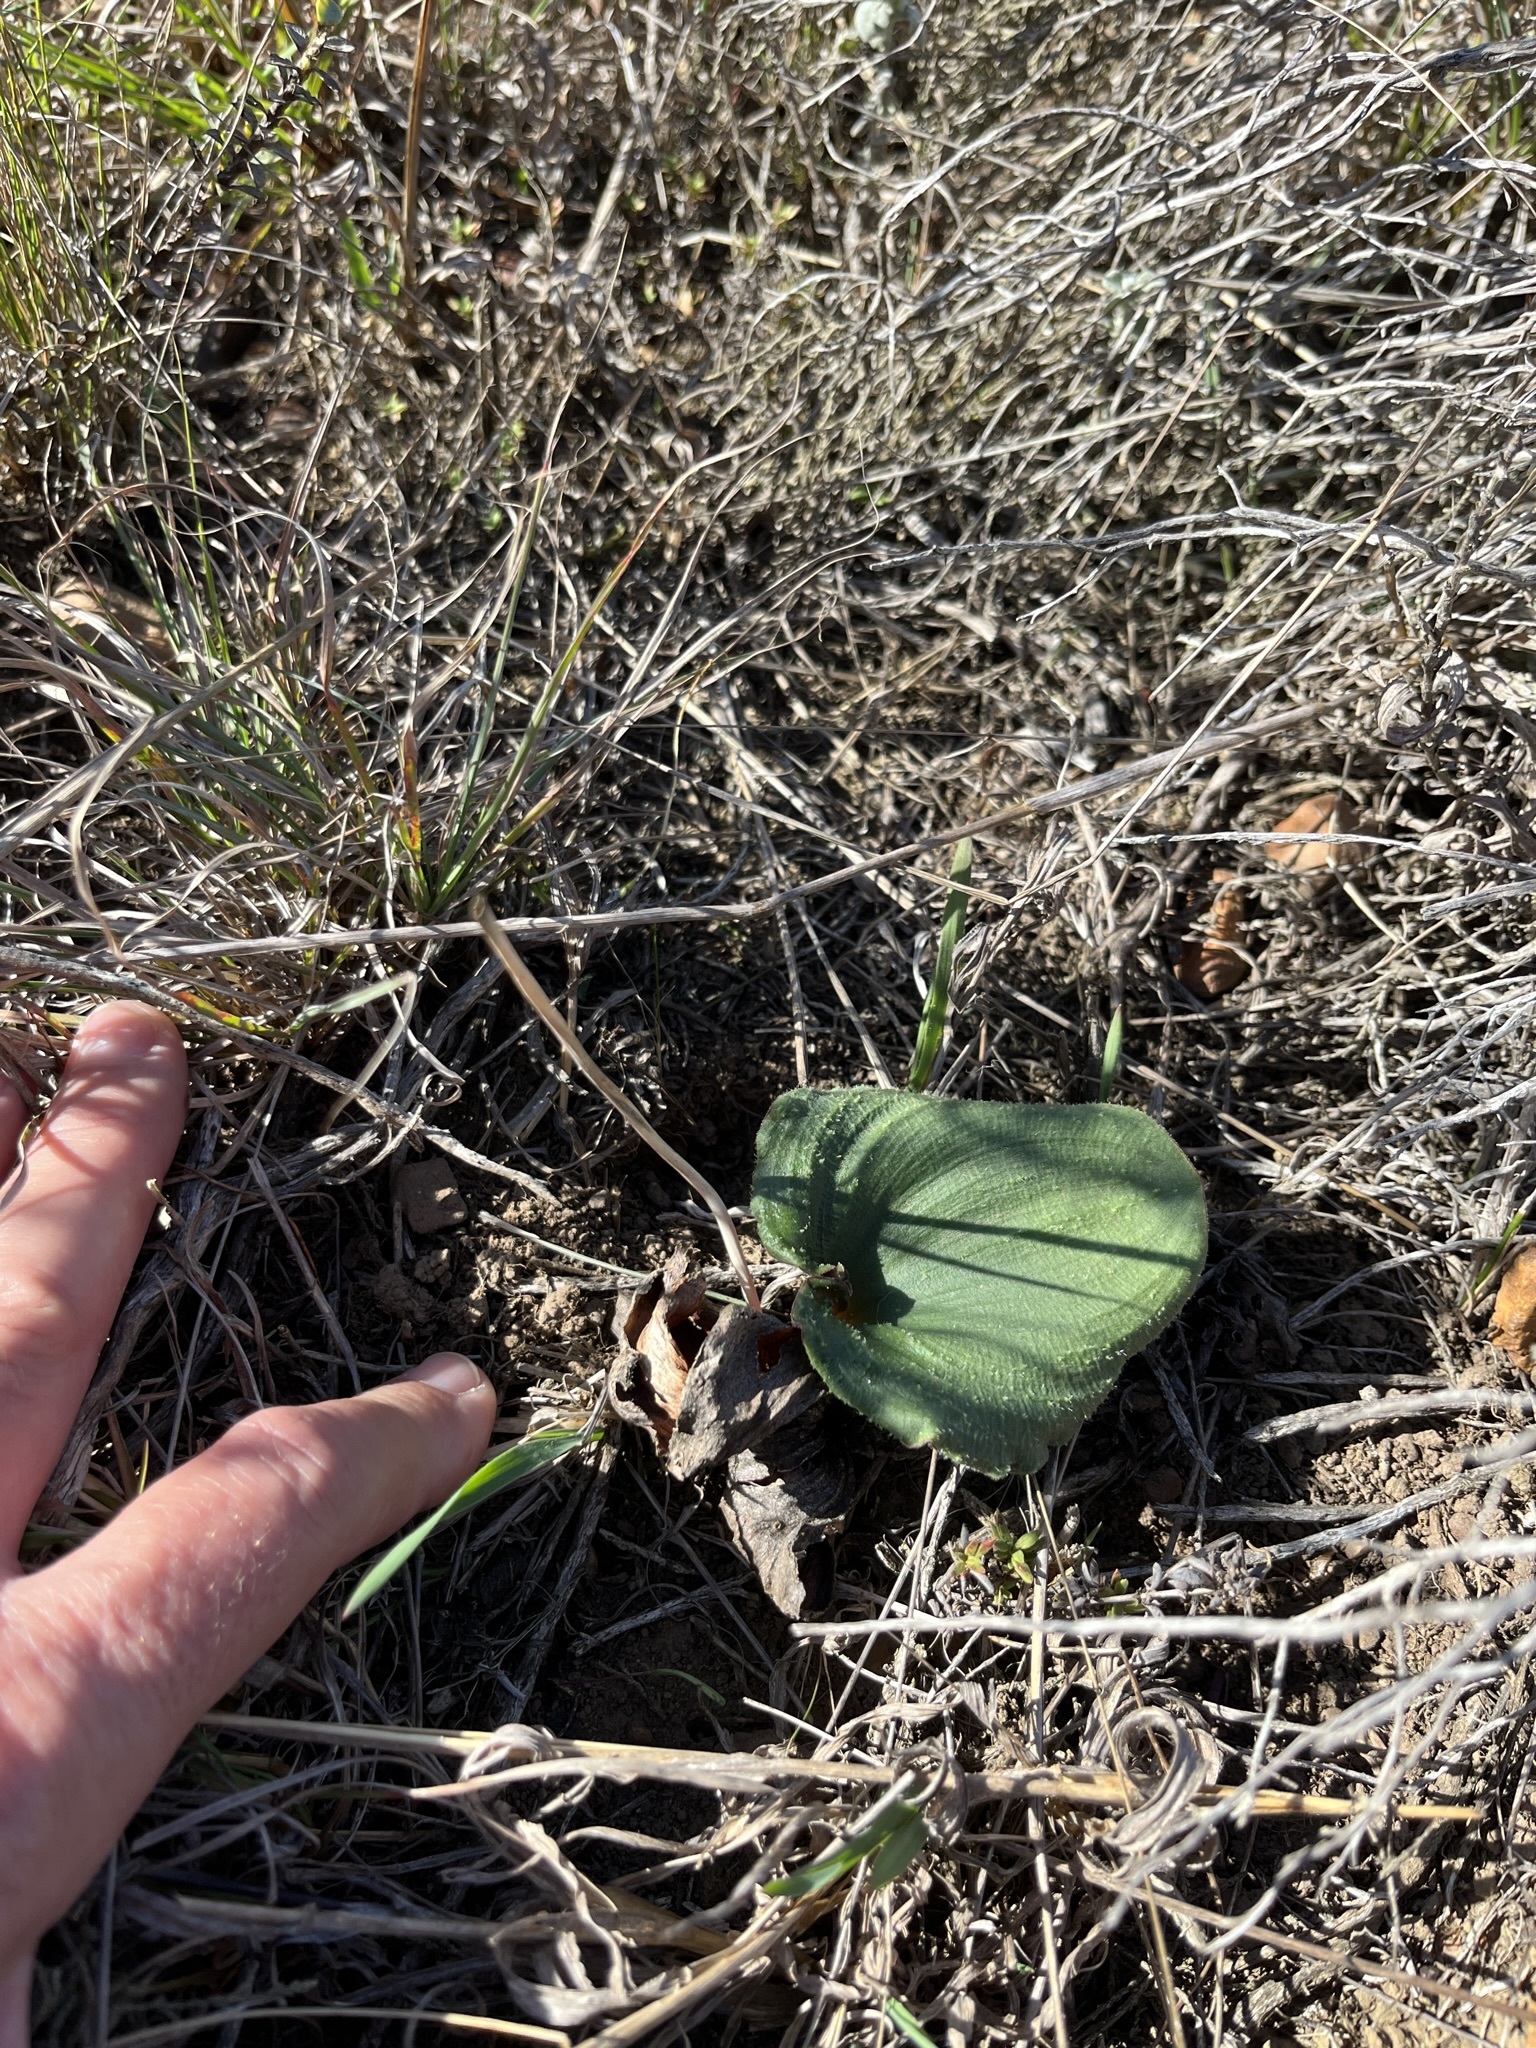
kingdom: Plantae
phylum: Tracheophyta
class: Liliopsida
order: Asparagales
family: Asparagaceae
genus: Eriospermum
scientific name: Eriospermum capense
